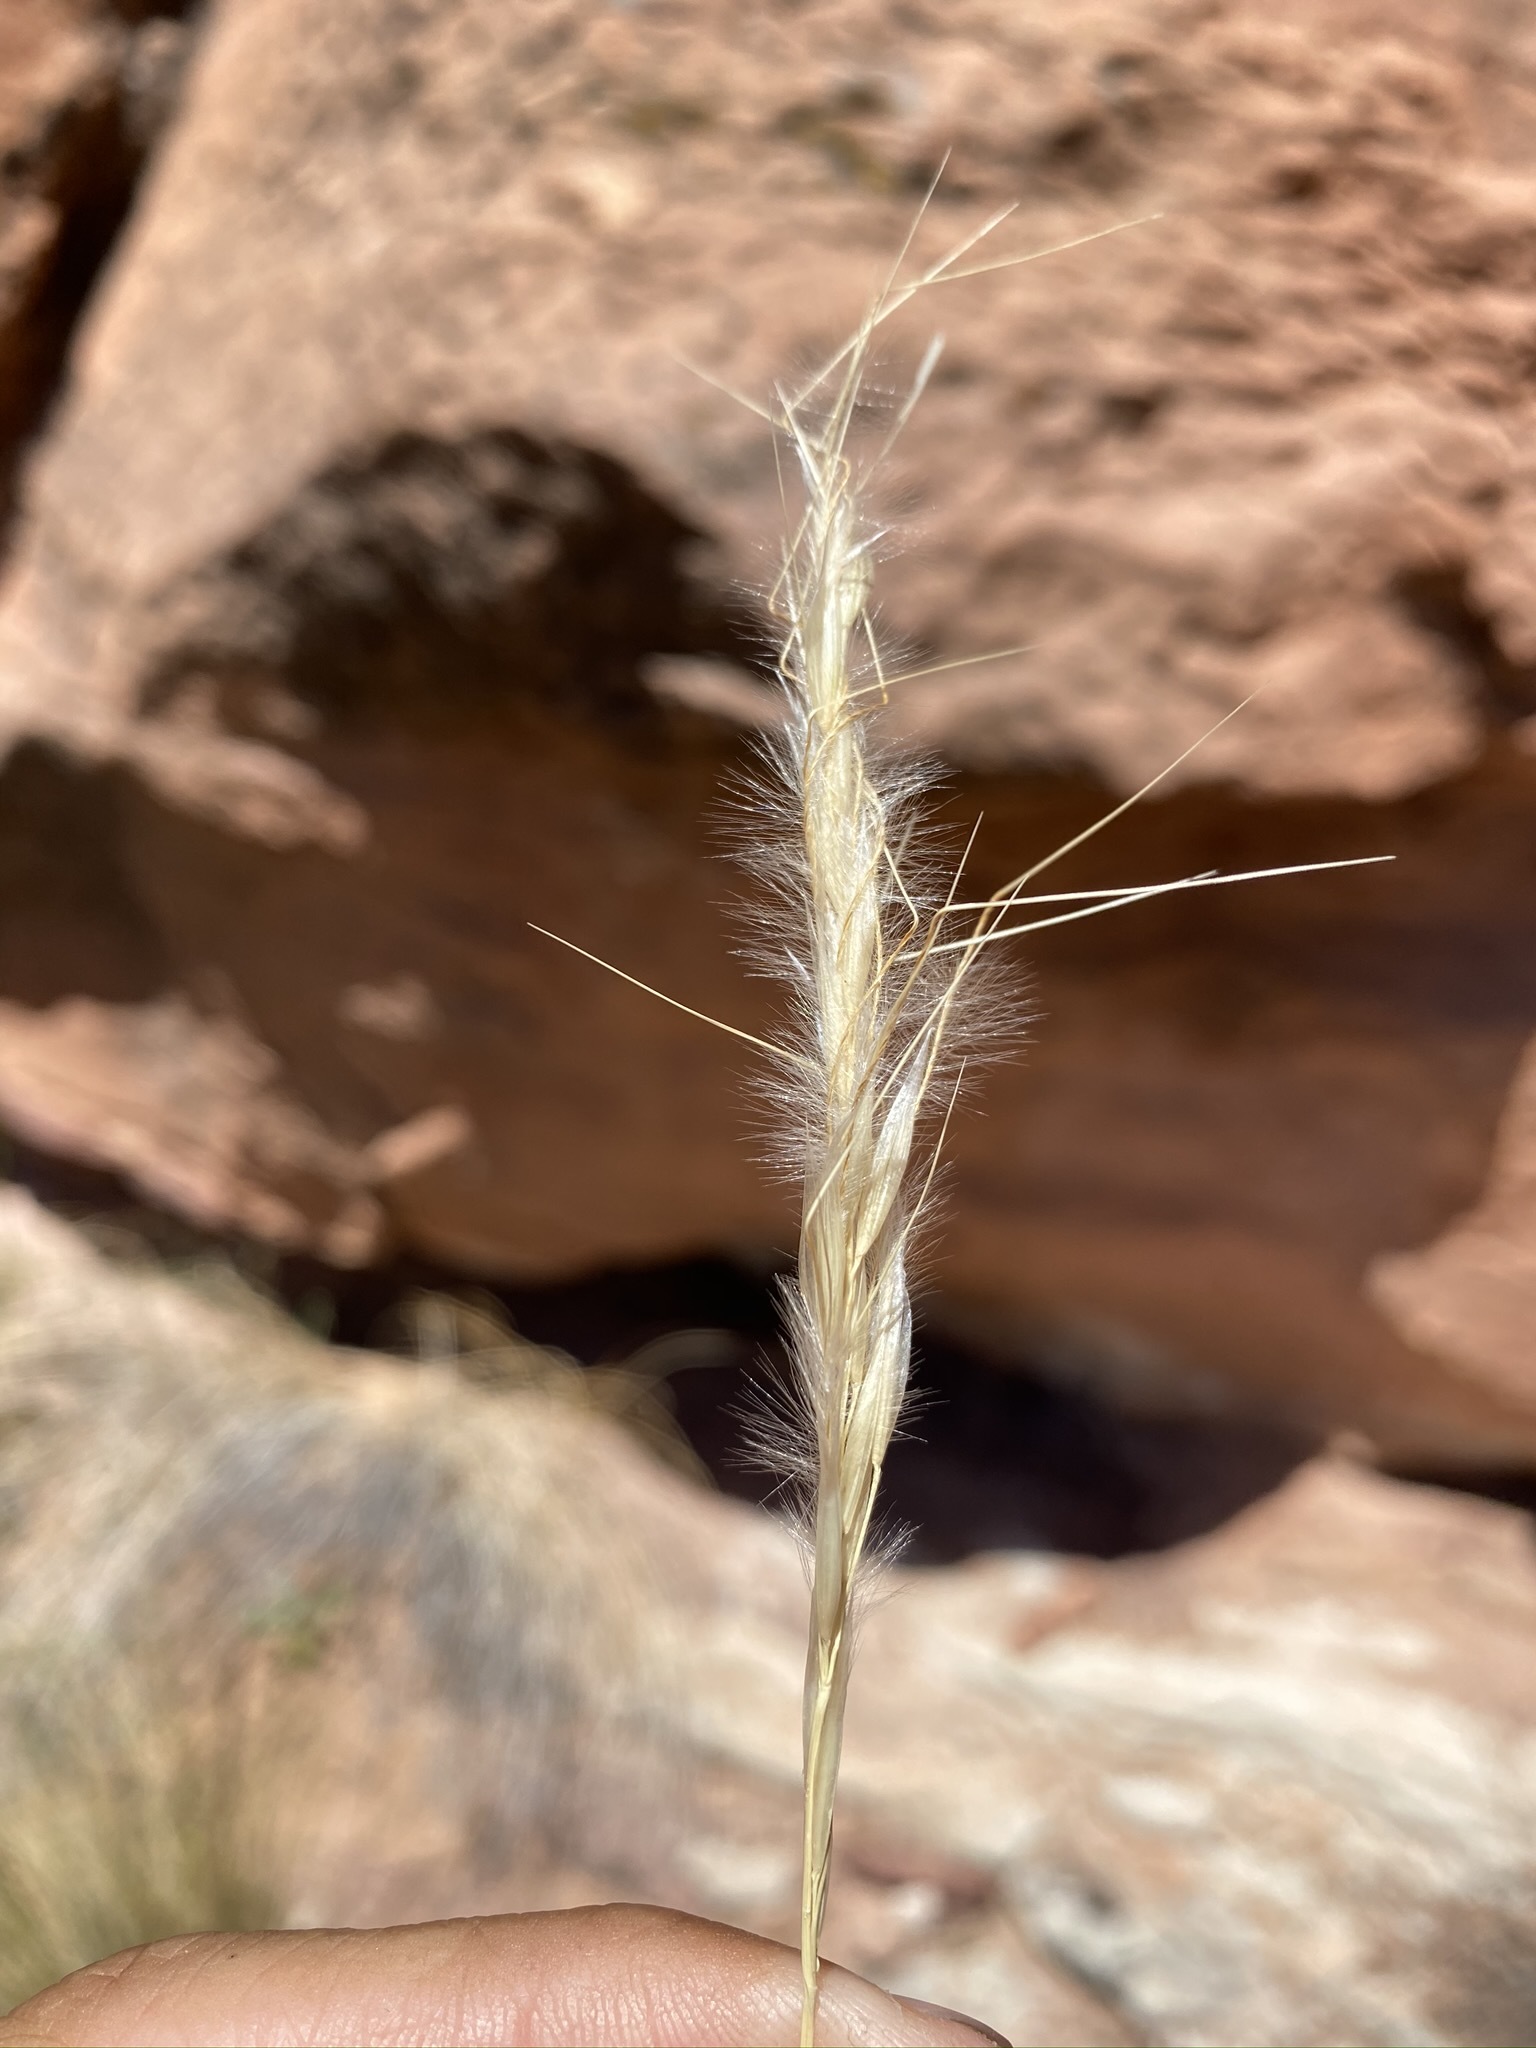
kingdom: Plantae
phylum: Tracheophyta
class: Liliopsida
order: Poales
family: Poaceae
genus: Pappostipa
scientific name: Pappostipa speciosa
